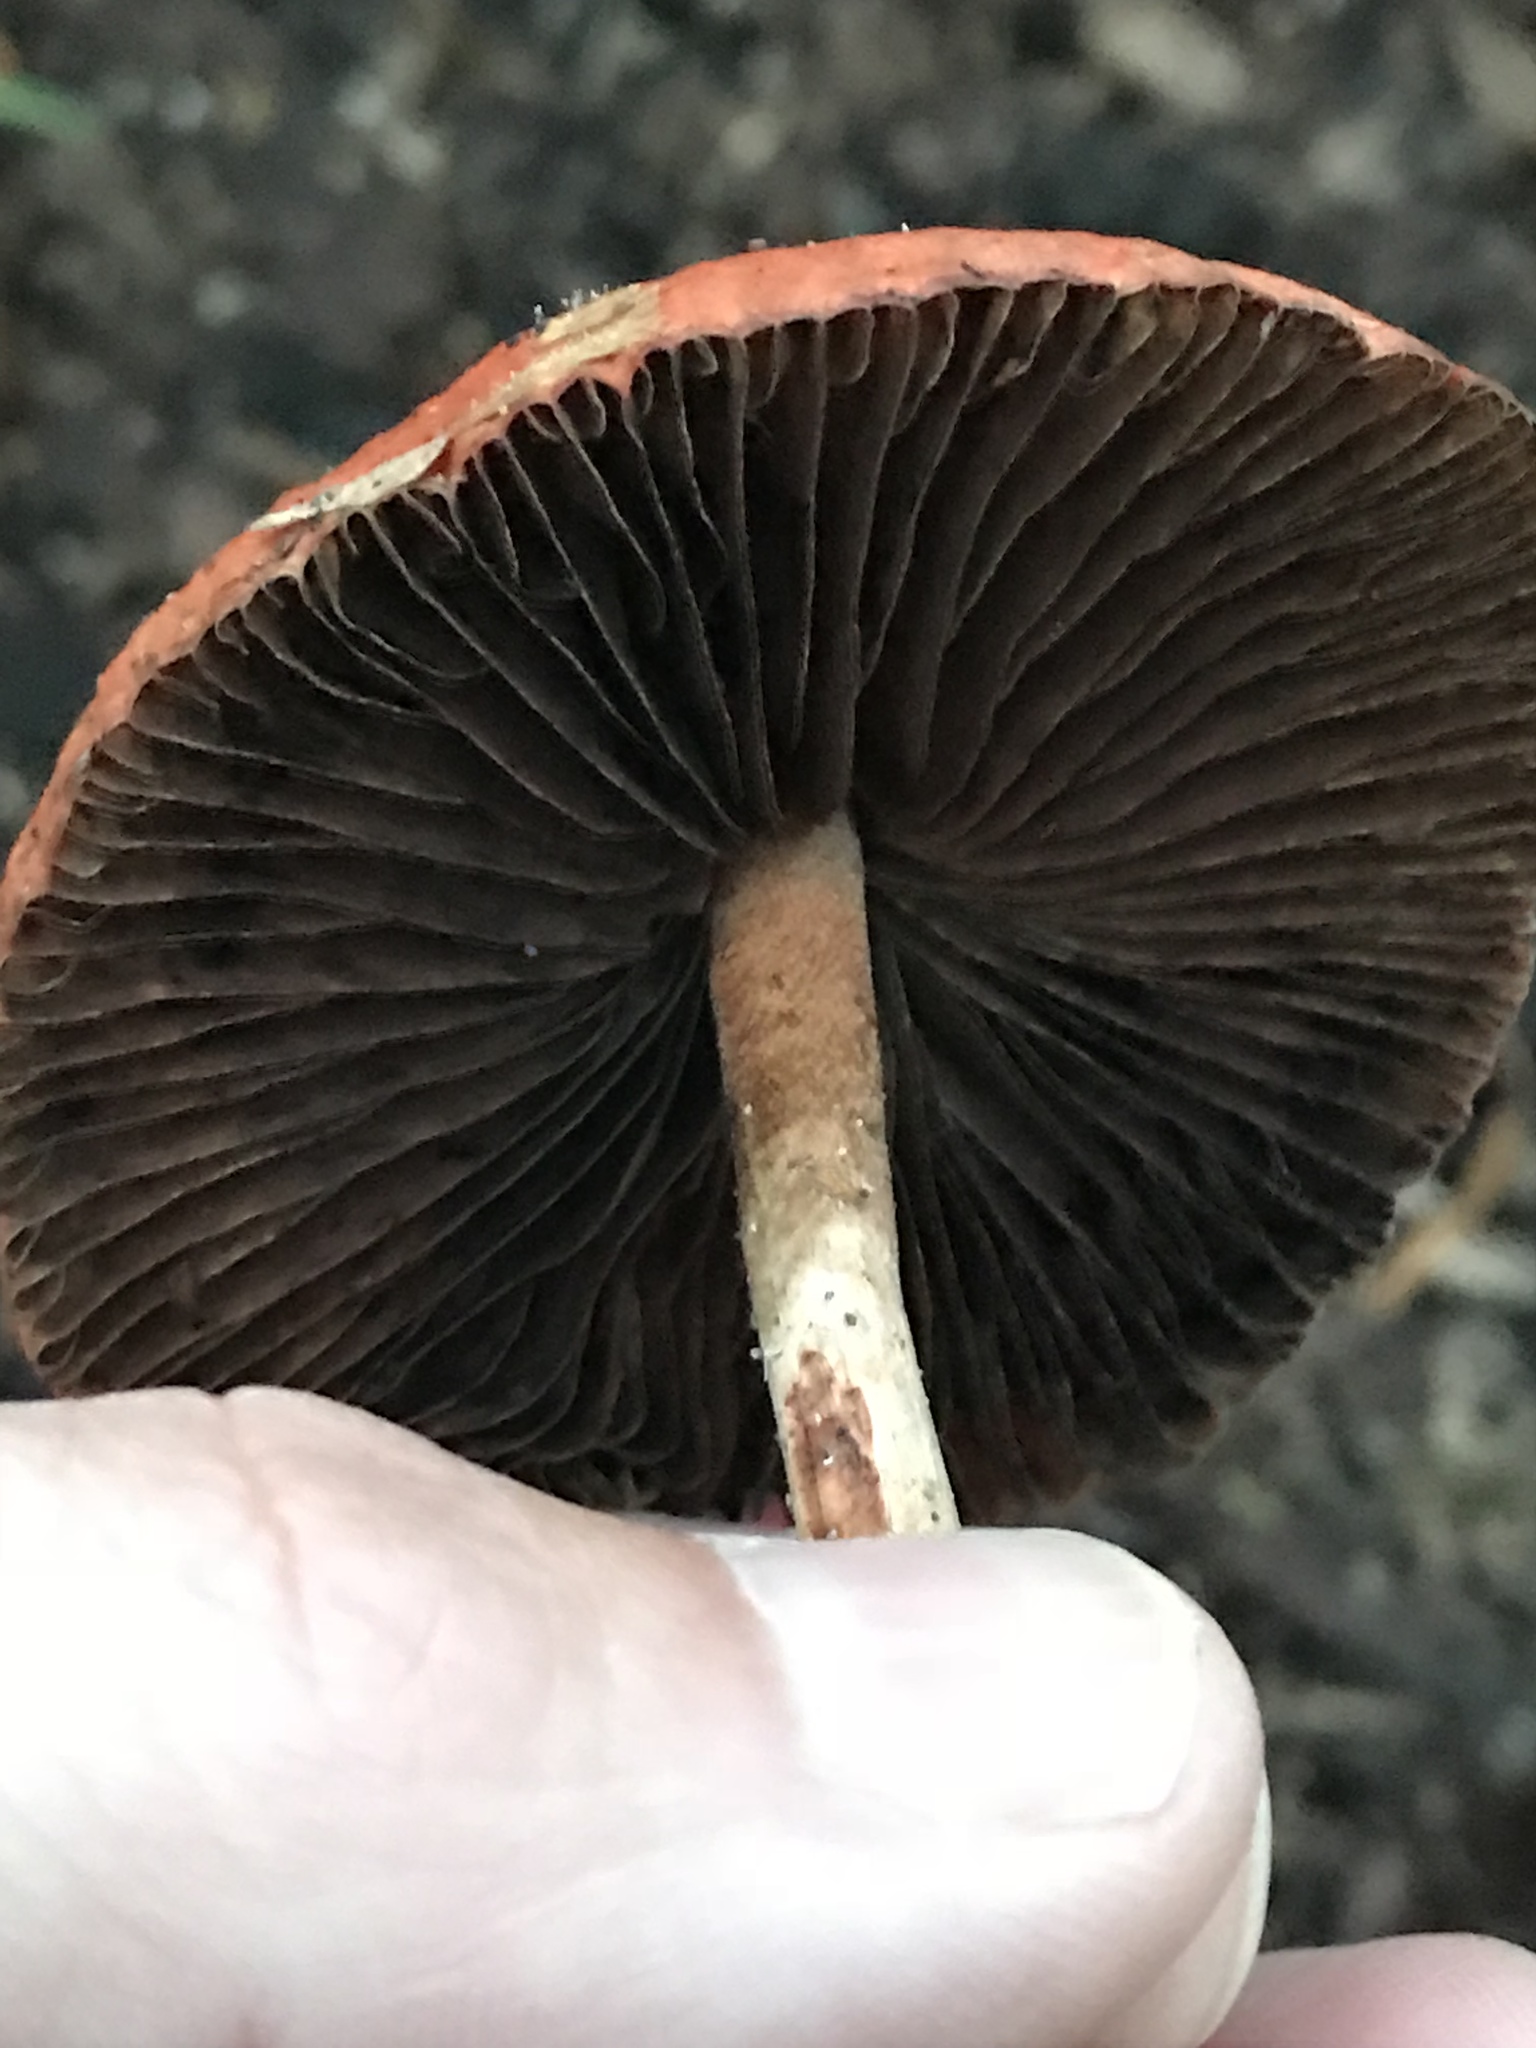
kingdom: Fungi
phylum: Basidiomycota
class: Agaricomycetes
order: Agaricales
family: Strophariaceae
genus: Leratiomyces
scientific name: Leratiomyces ceres
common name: Redlead roundhead
